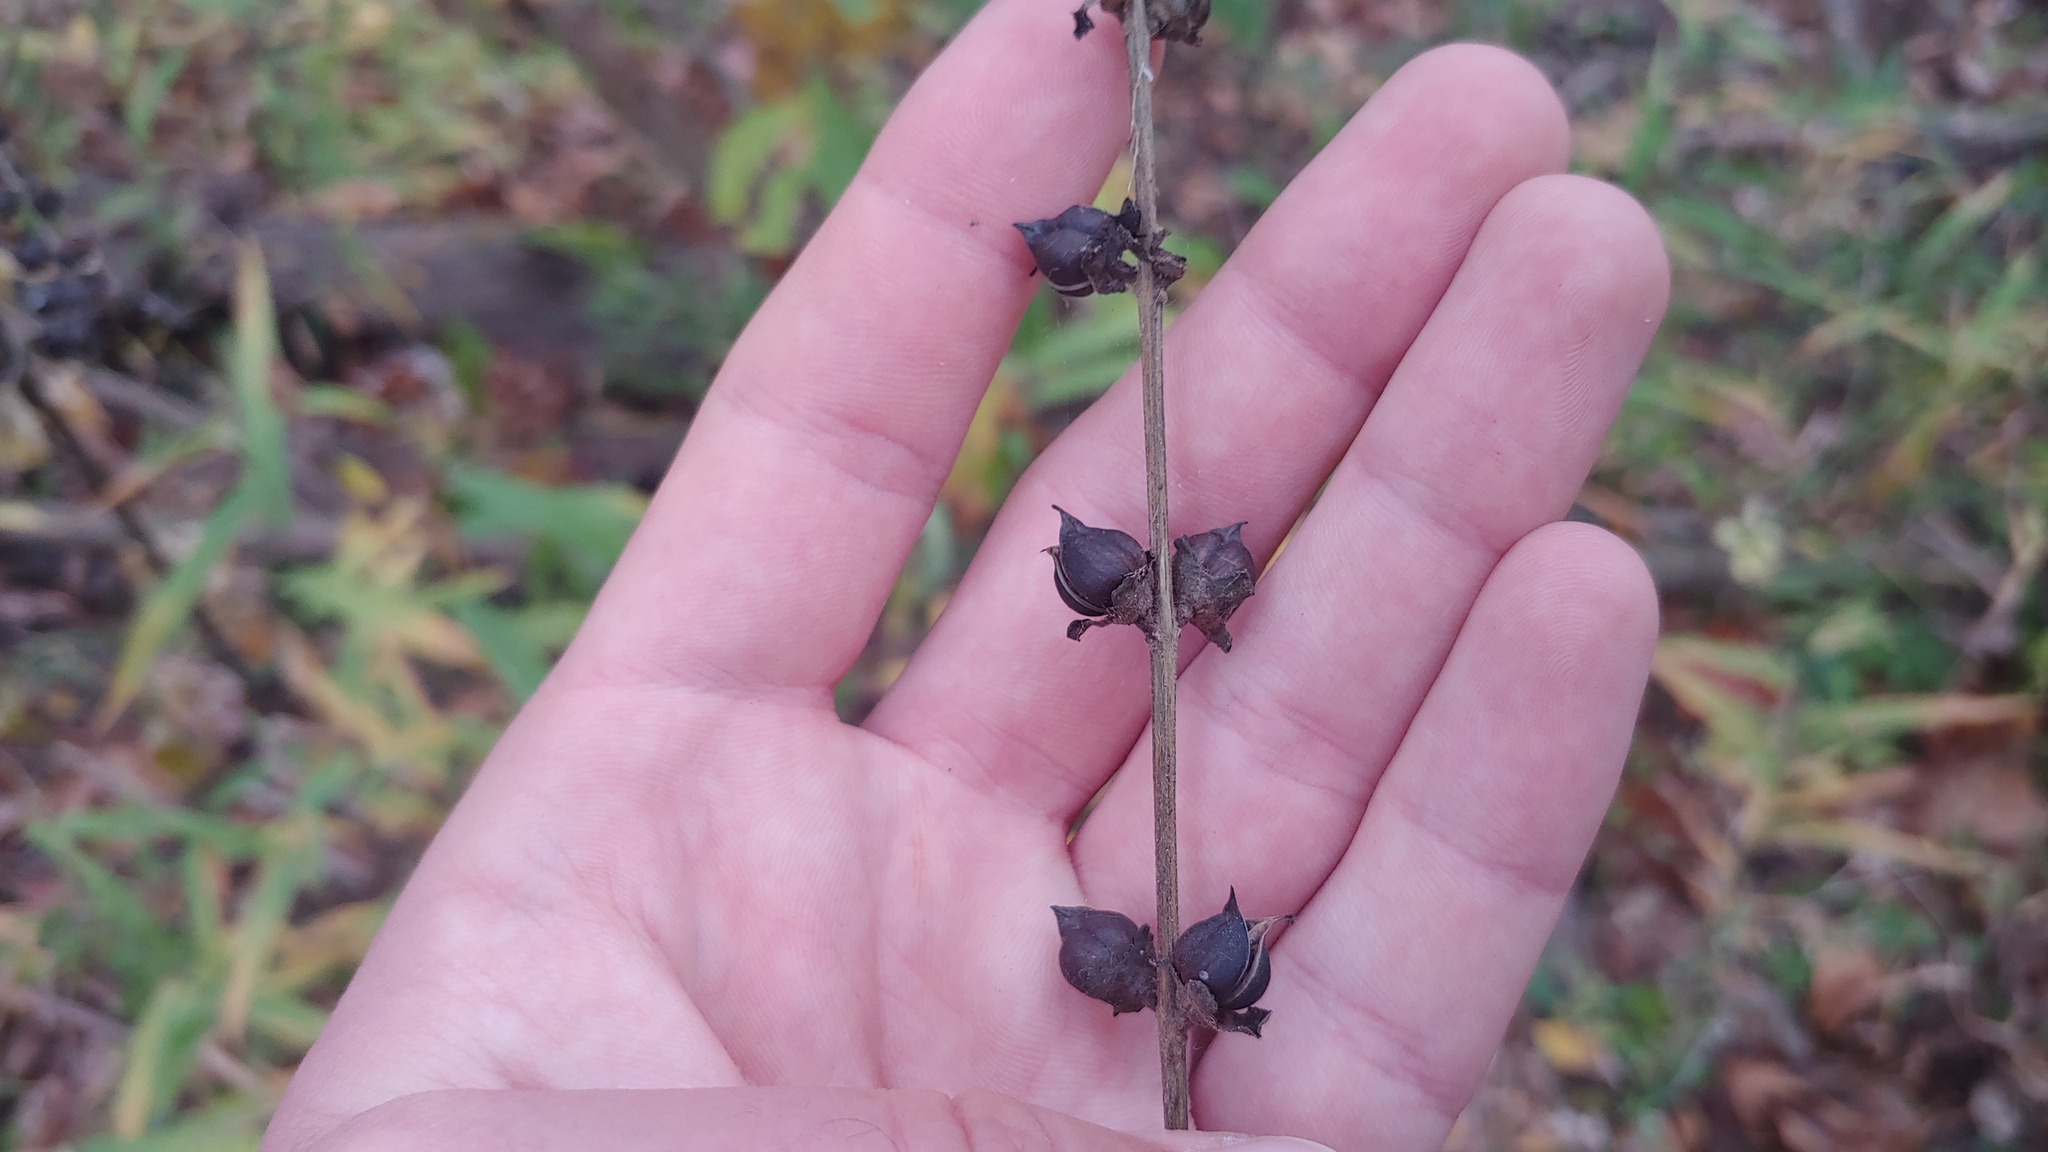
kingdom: Plantae
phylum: Tracheophyta
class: Magnoliopsida
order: Lamiales
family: Orobanchaceae
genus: Dasistoma
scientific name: Dasistoma macrophyllum
